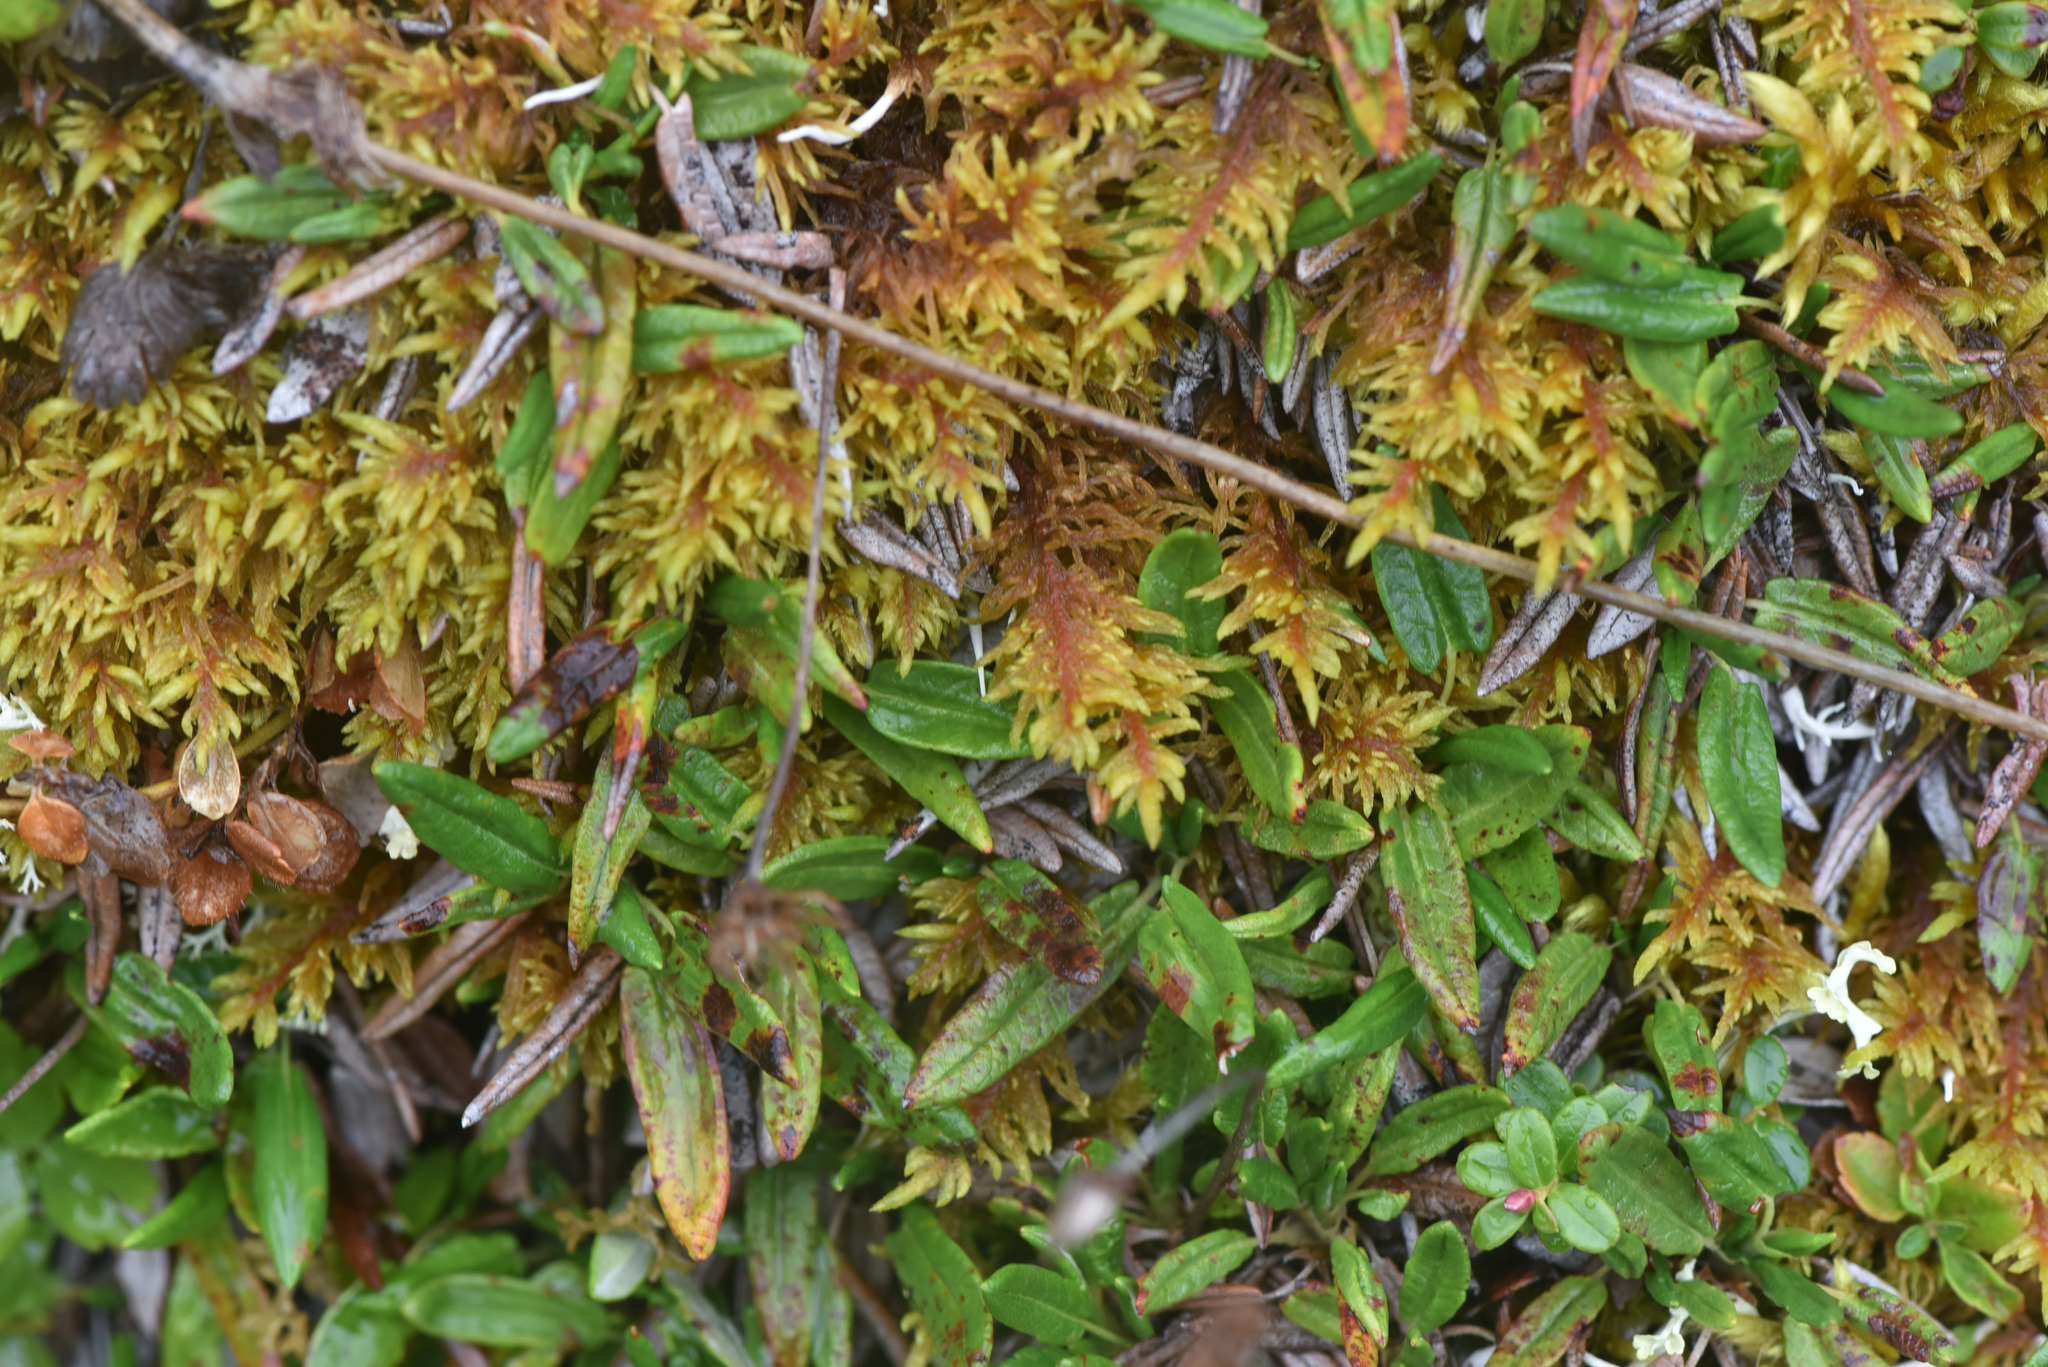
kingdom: Plantae
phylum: Tracheophyta
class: Magnoliopsida
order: Rosales
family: Rosaceae
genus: Dryas
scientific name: Dryas integrifolia
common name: Entire-leaved mountain avens
